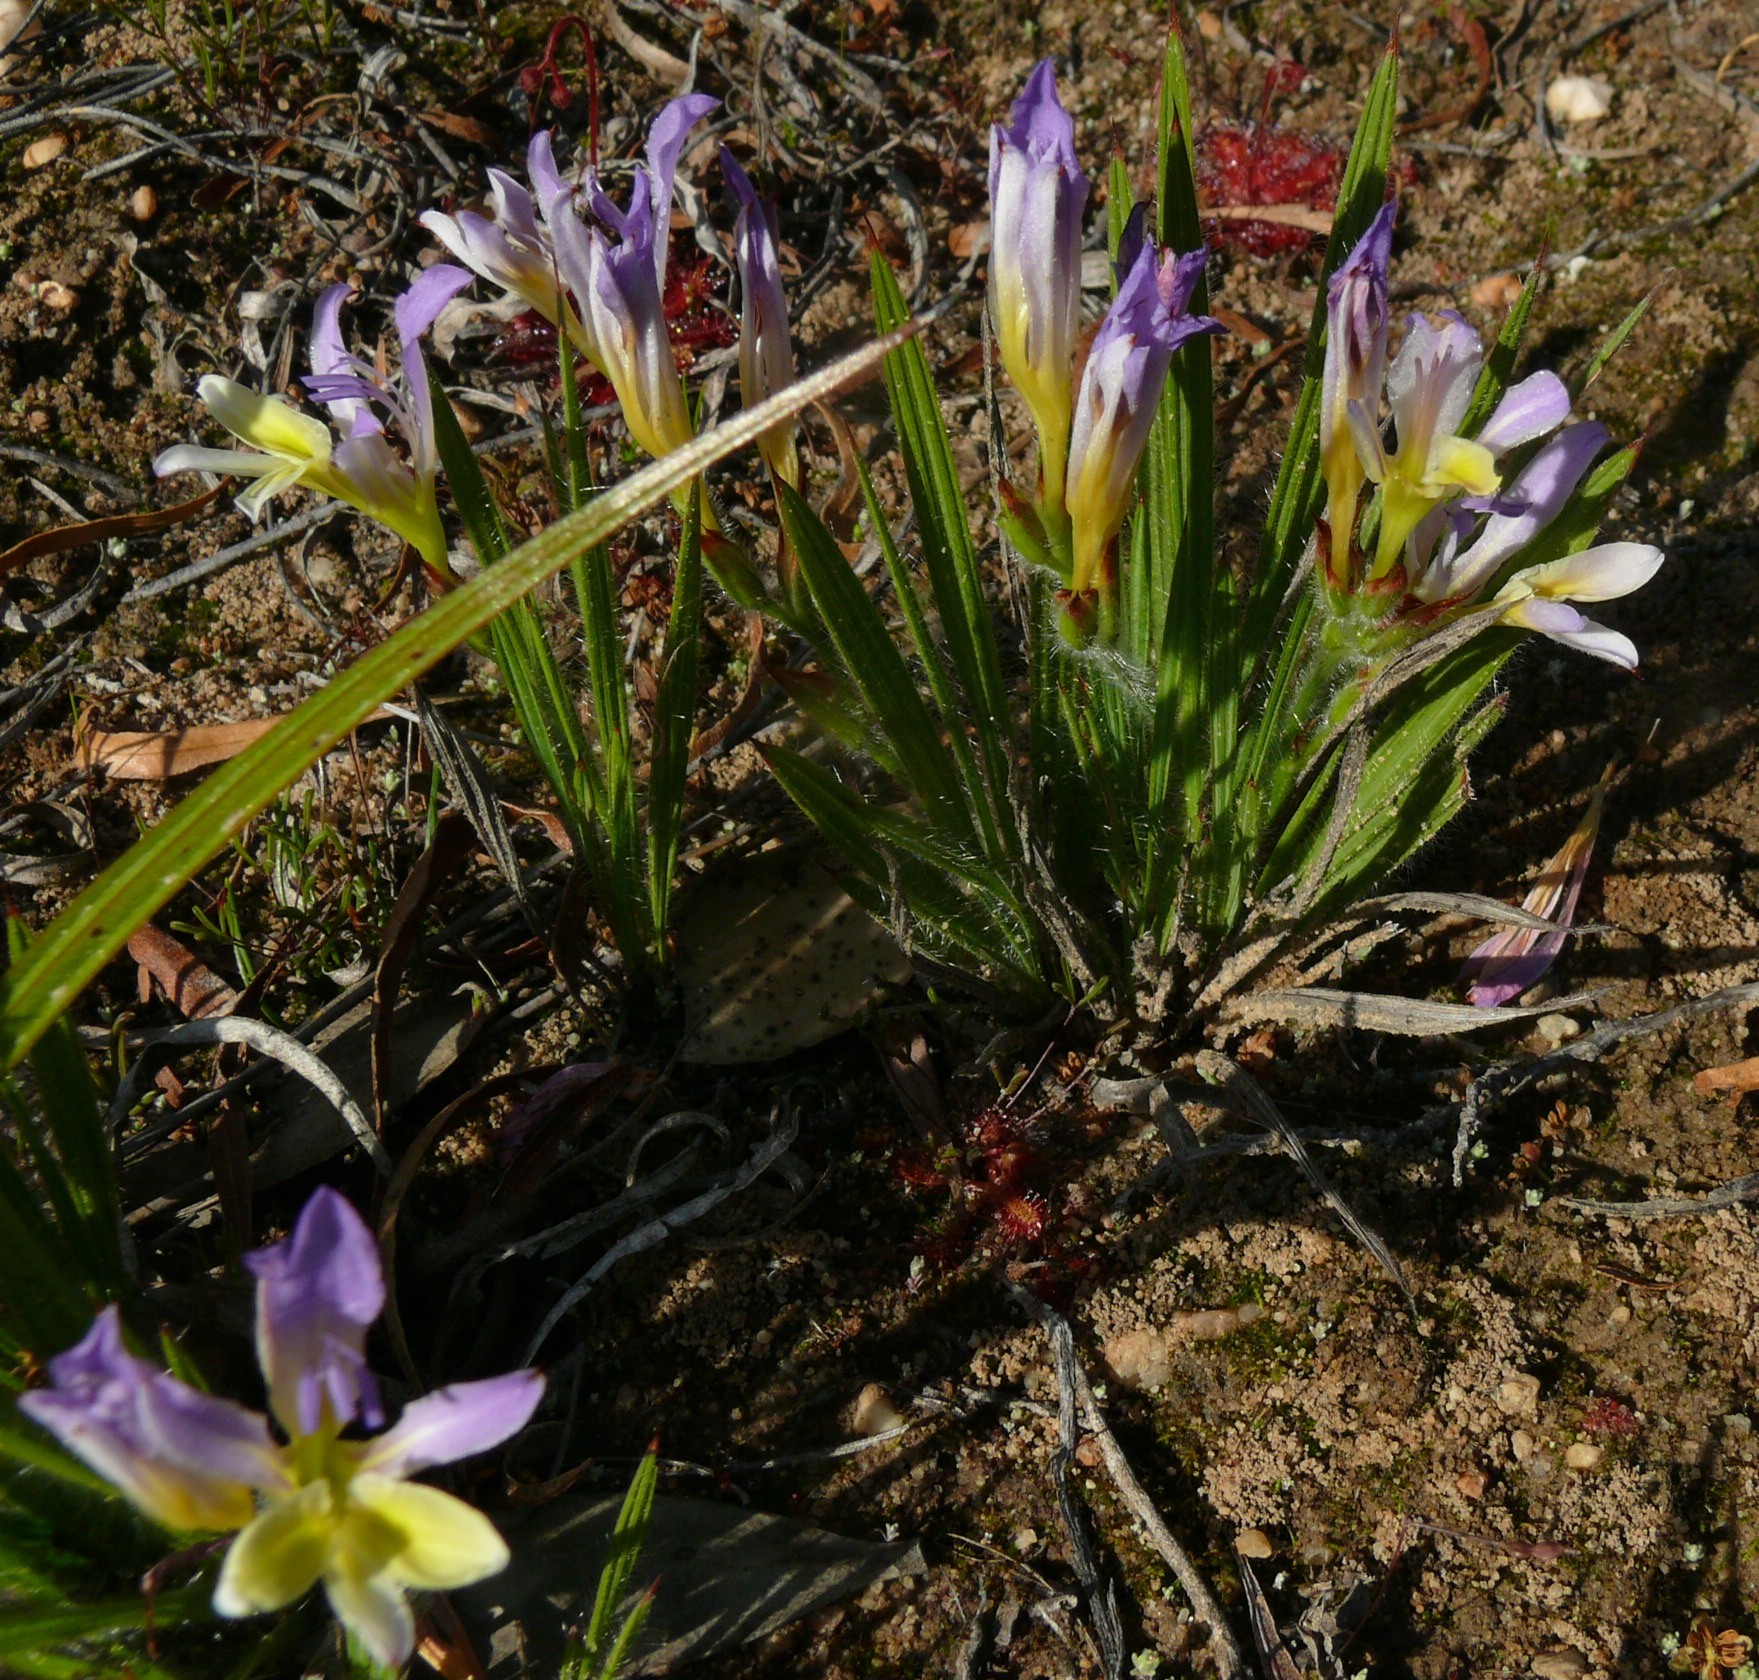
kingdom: Plantae
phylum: Tracheophyta
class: Liliopsida
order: Asparagales
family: Iridaceae
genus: Babiana
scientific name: Babiana auriculata
